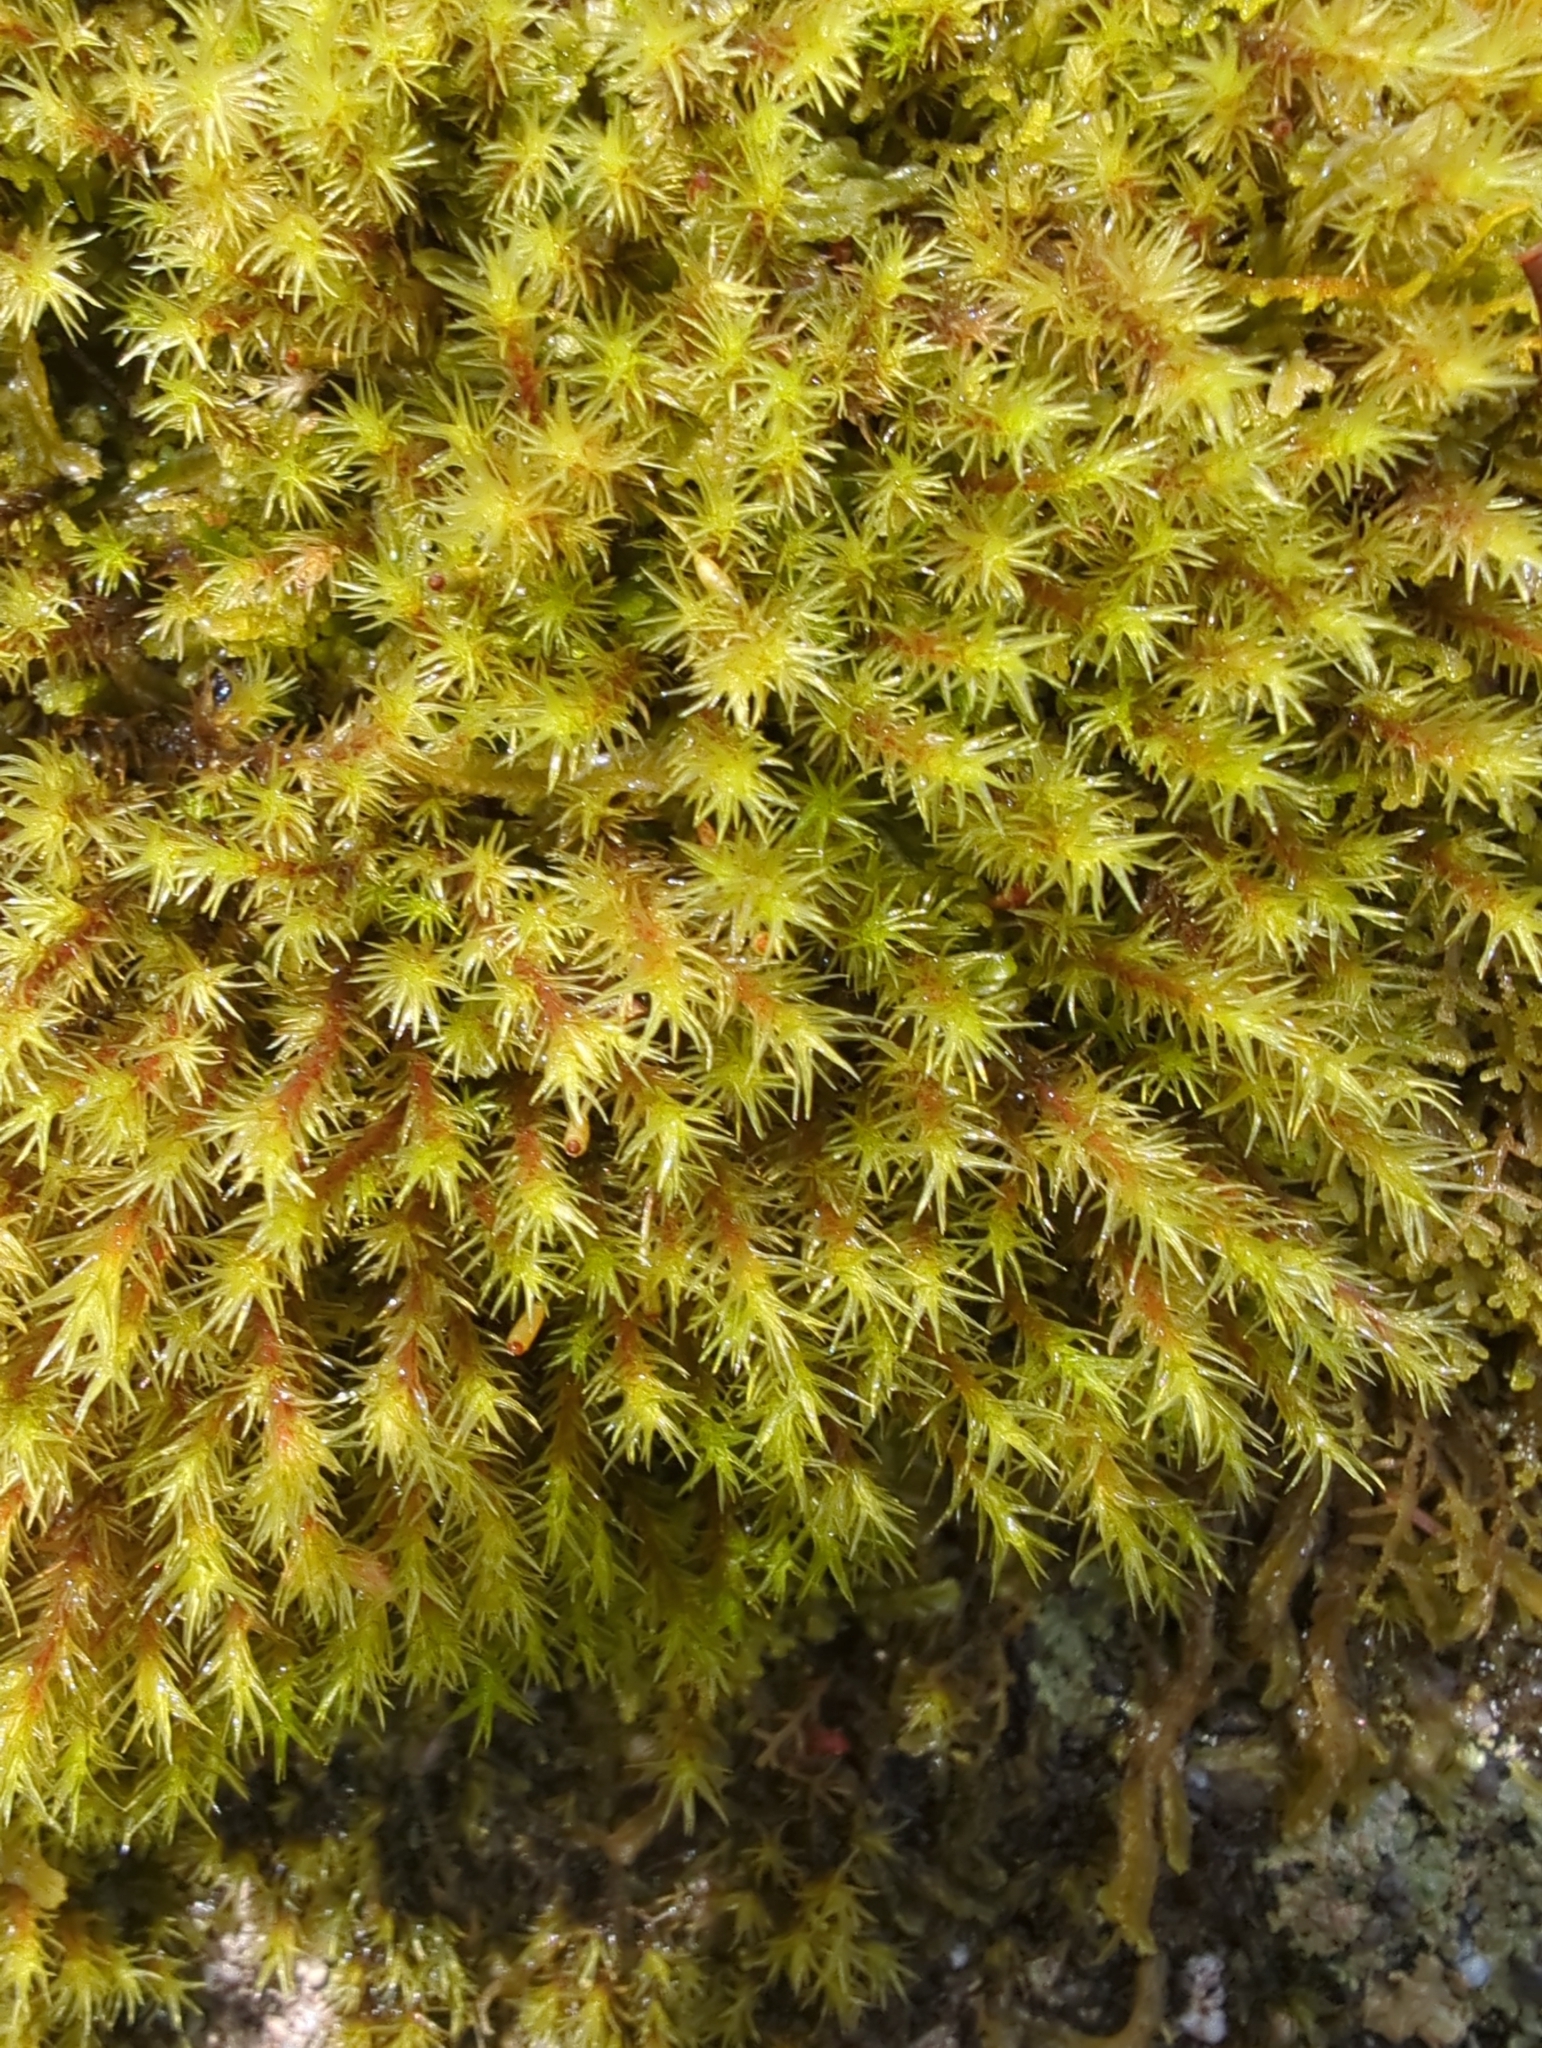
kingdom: Plantae
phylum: Bryophyta
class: Bryopsida
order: Grimmiales
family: Grimmiaceae
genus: Bucklandiella
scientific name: Bucklandiella crispula
